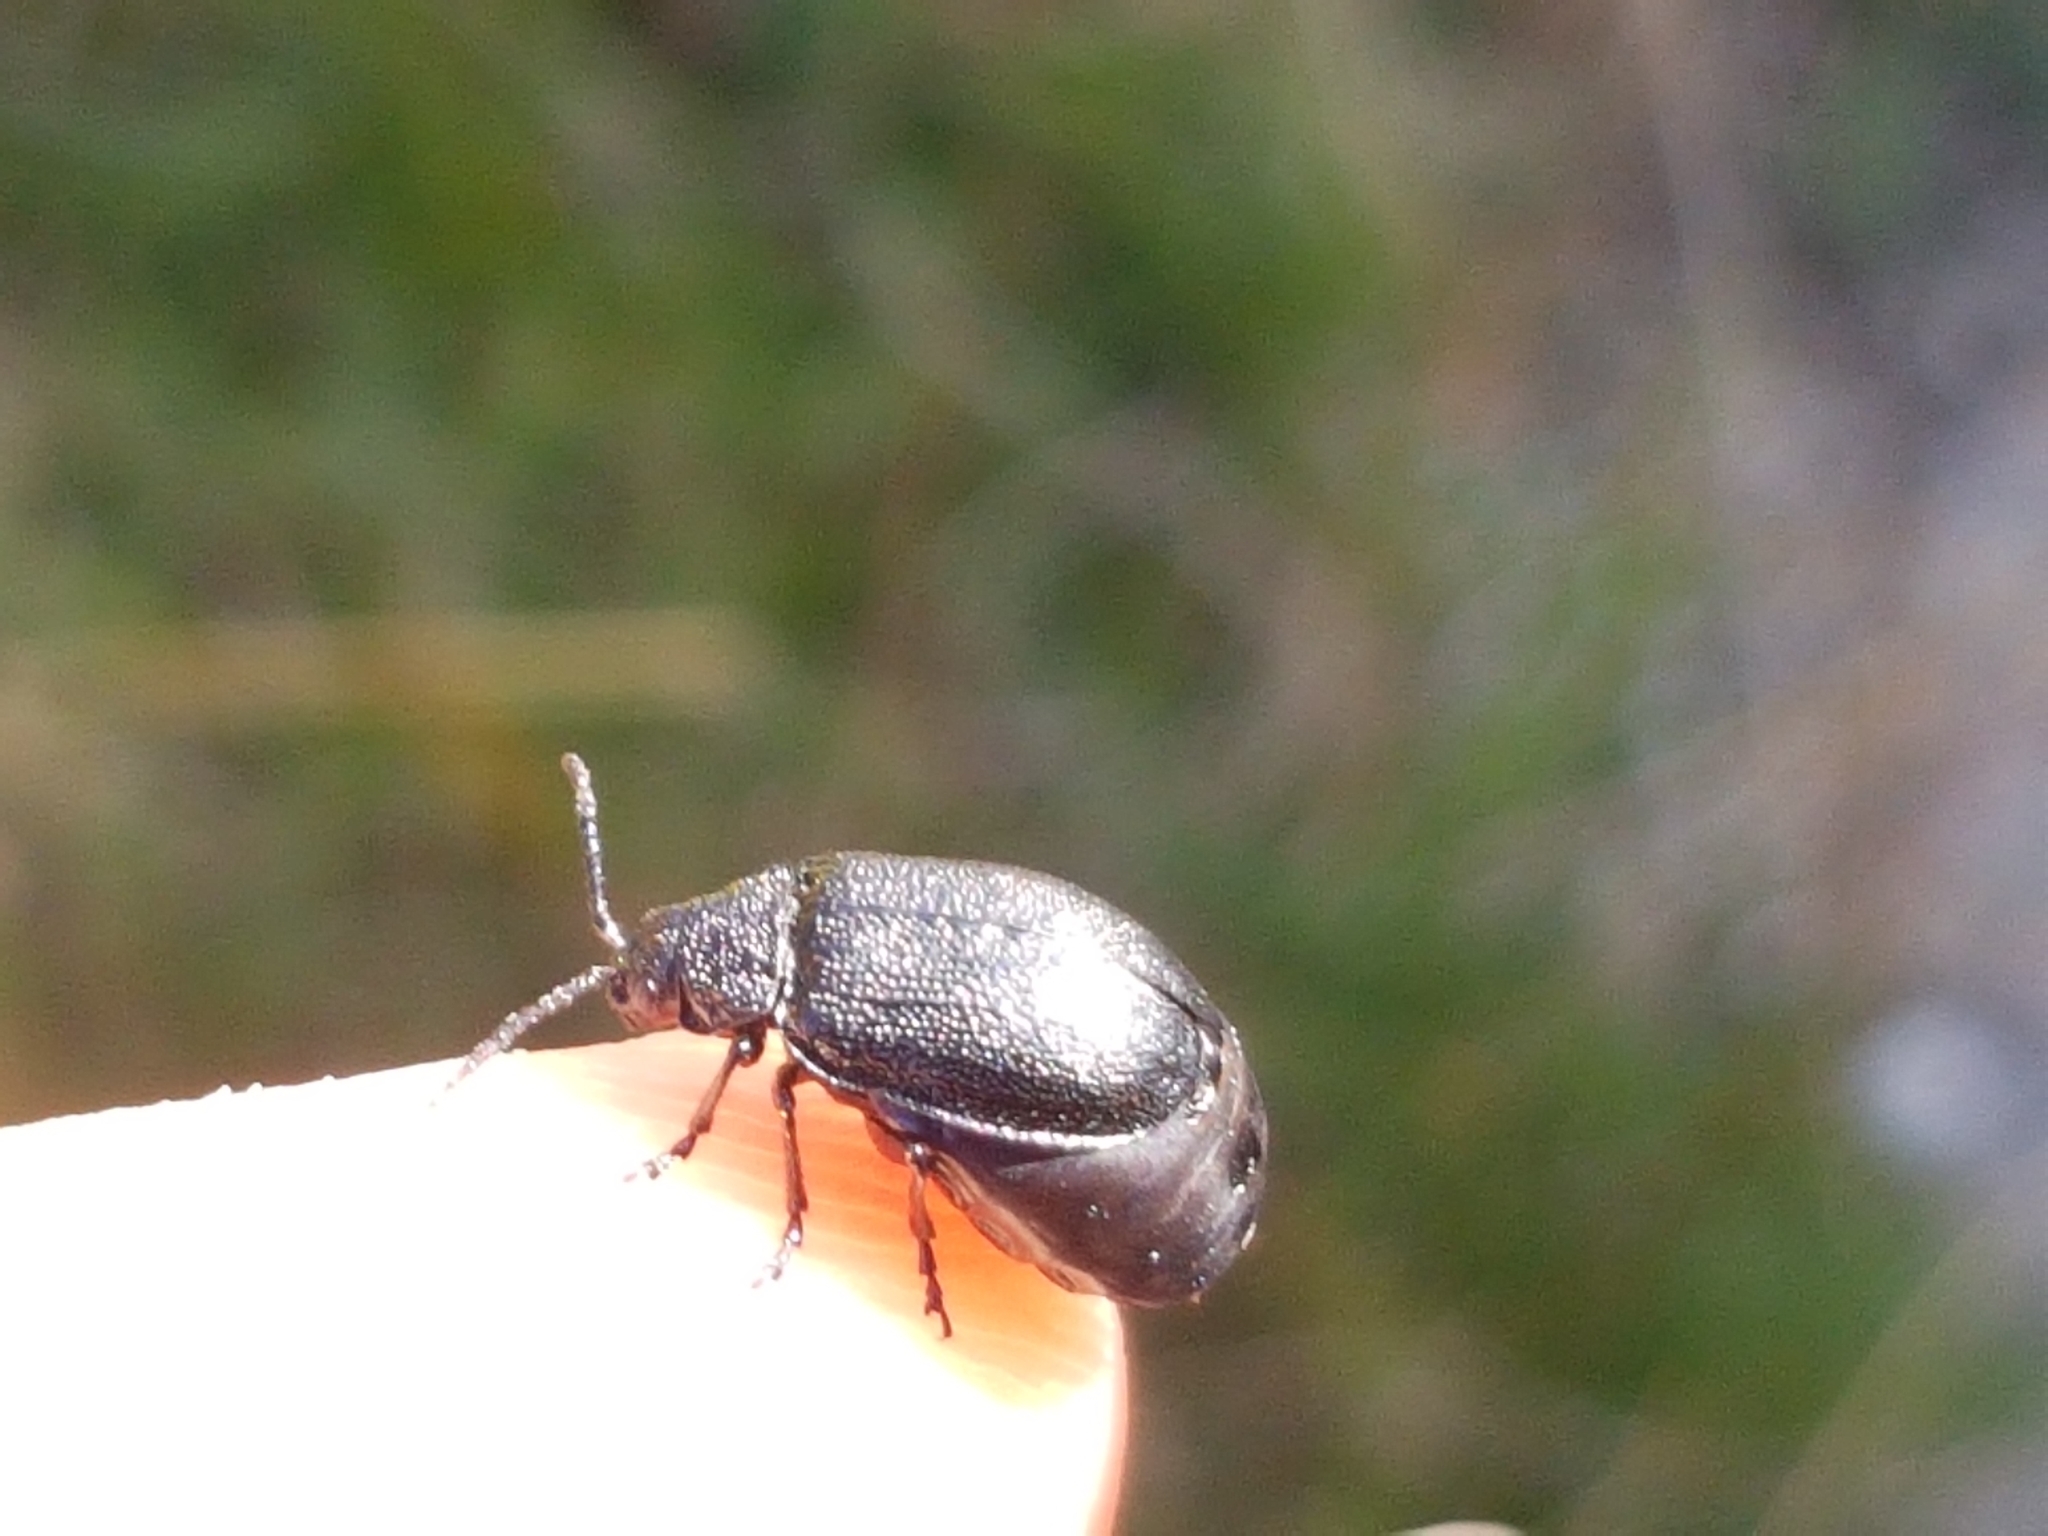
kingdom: Animalia
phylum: Arthropoda
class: Insecta
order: Coleoptera
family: Chrysomelidae
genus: Galeruca
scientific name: Galeruca tanaceti
